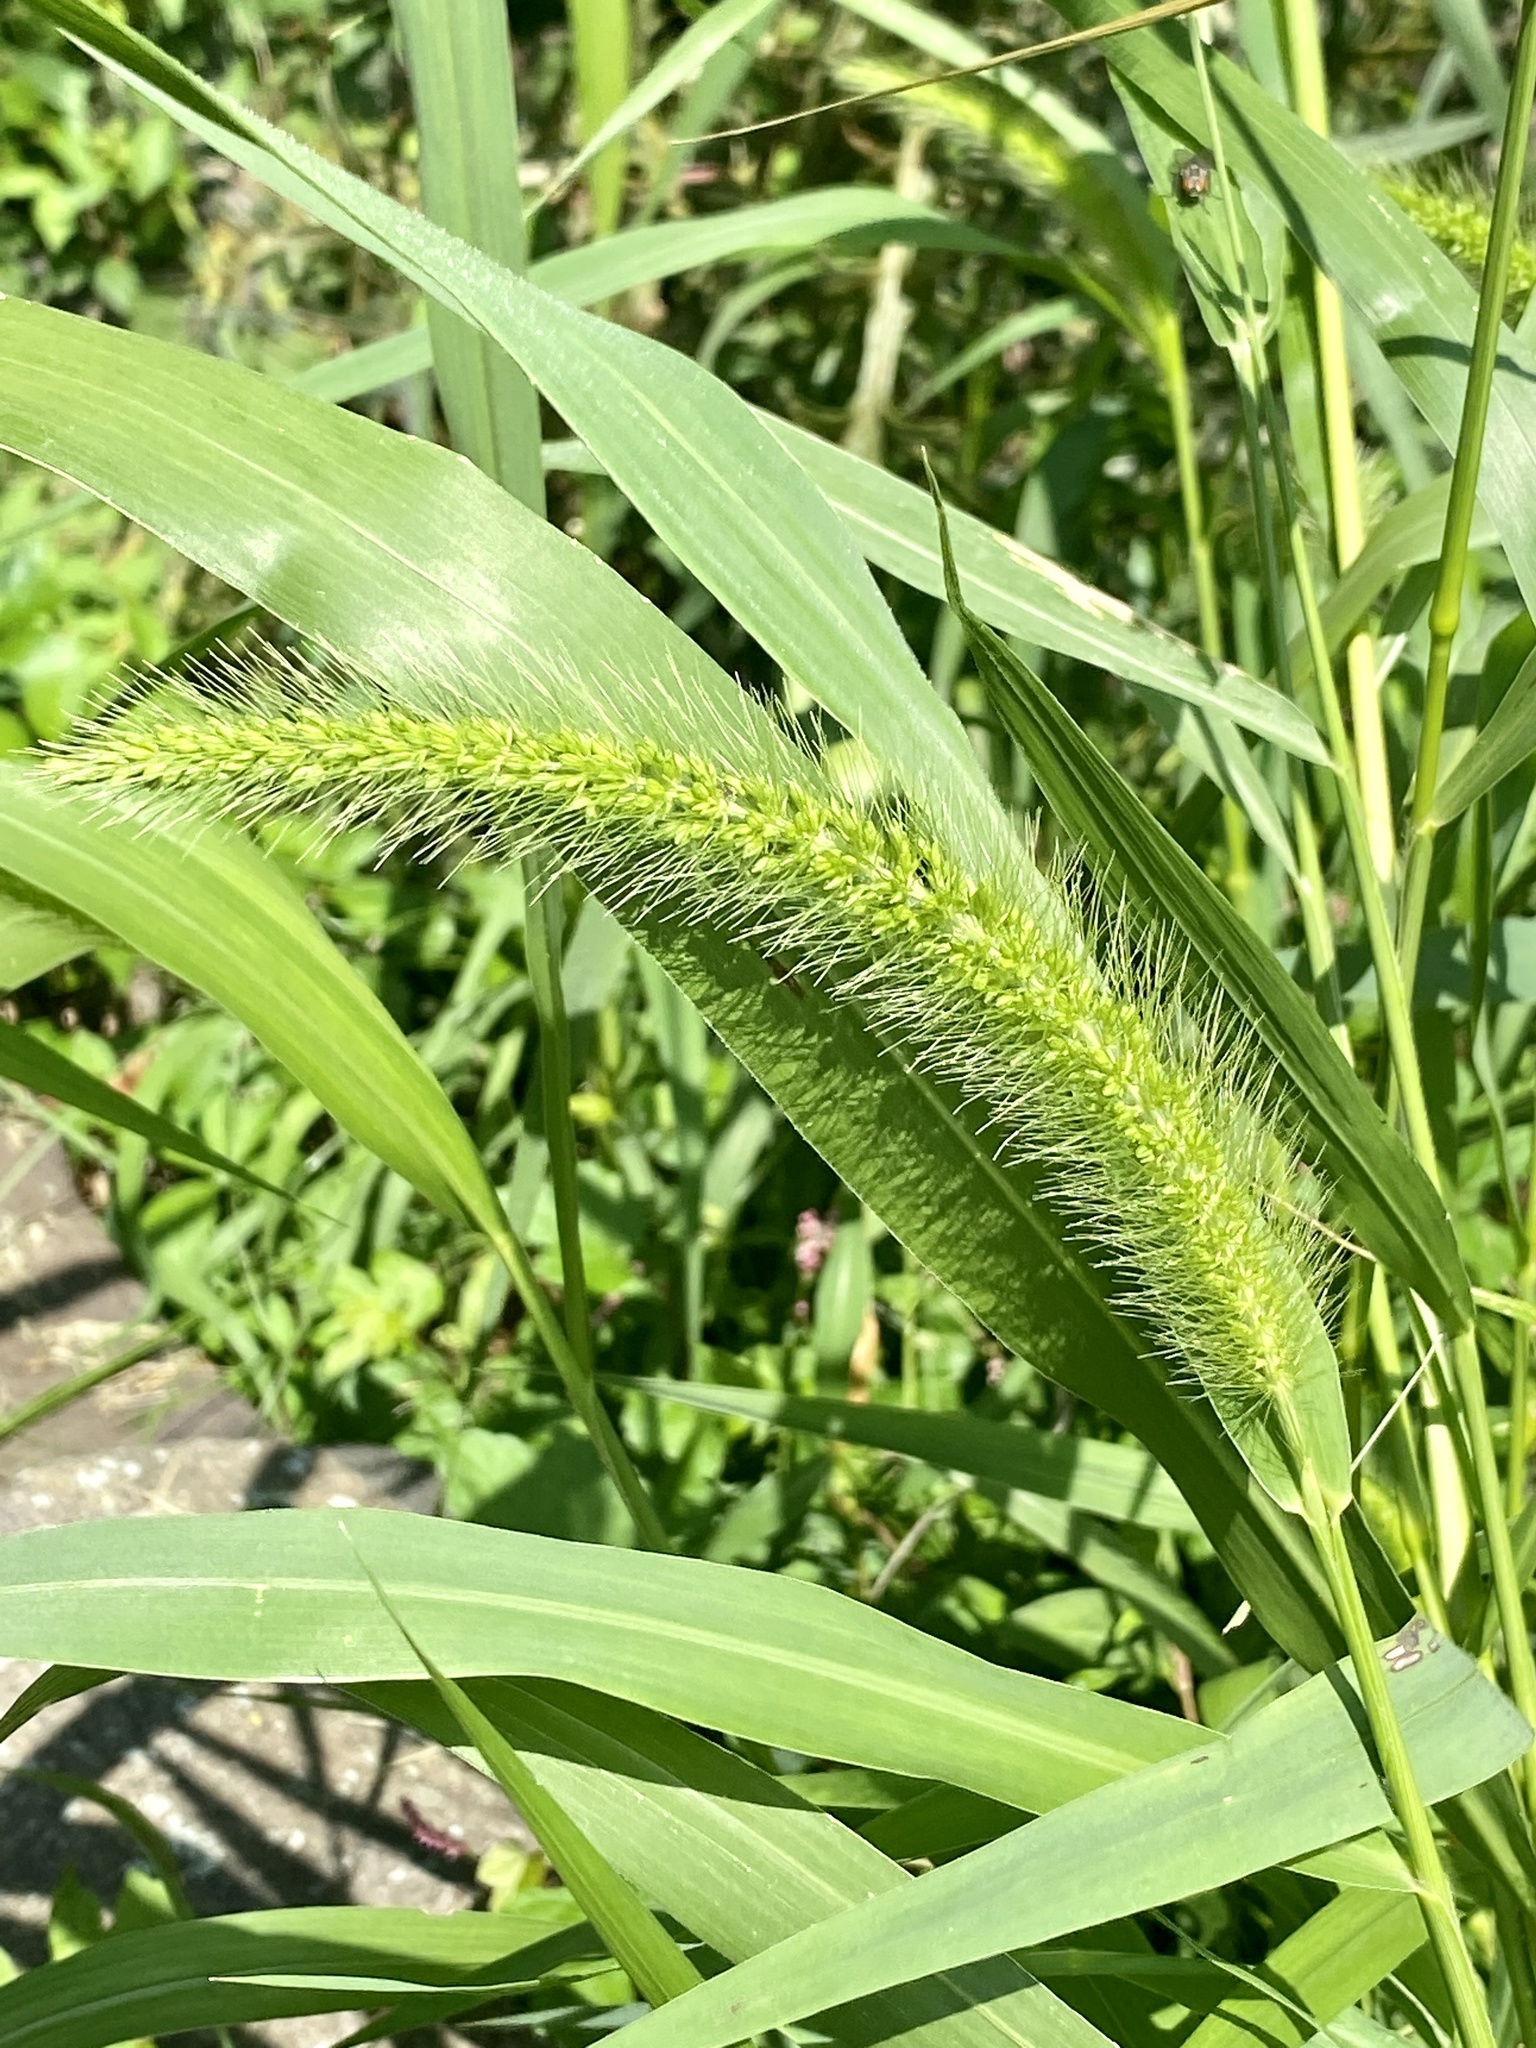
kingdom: Plantae
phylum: Tracheophyta
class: Liliopsida
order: Poales
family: Poaceae
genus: Setaria
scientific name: Setaria faberi
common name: Nodding bristle-grass
